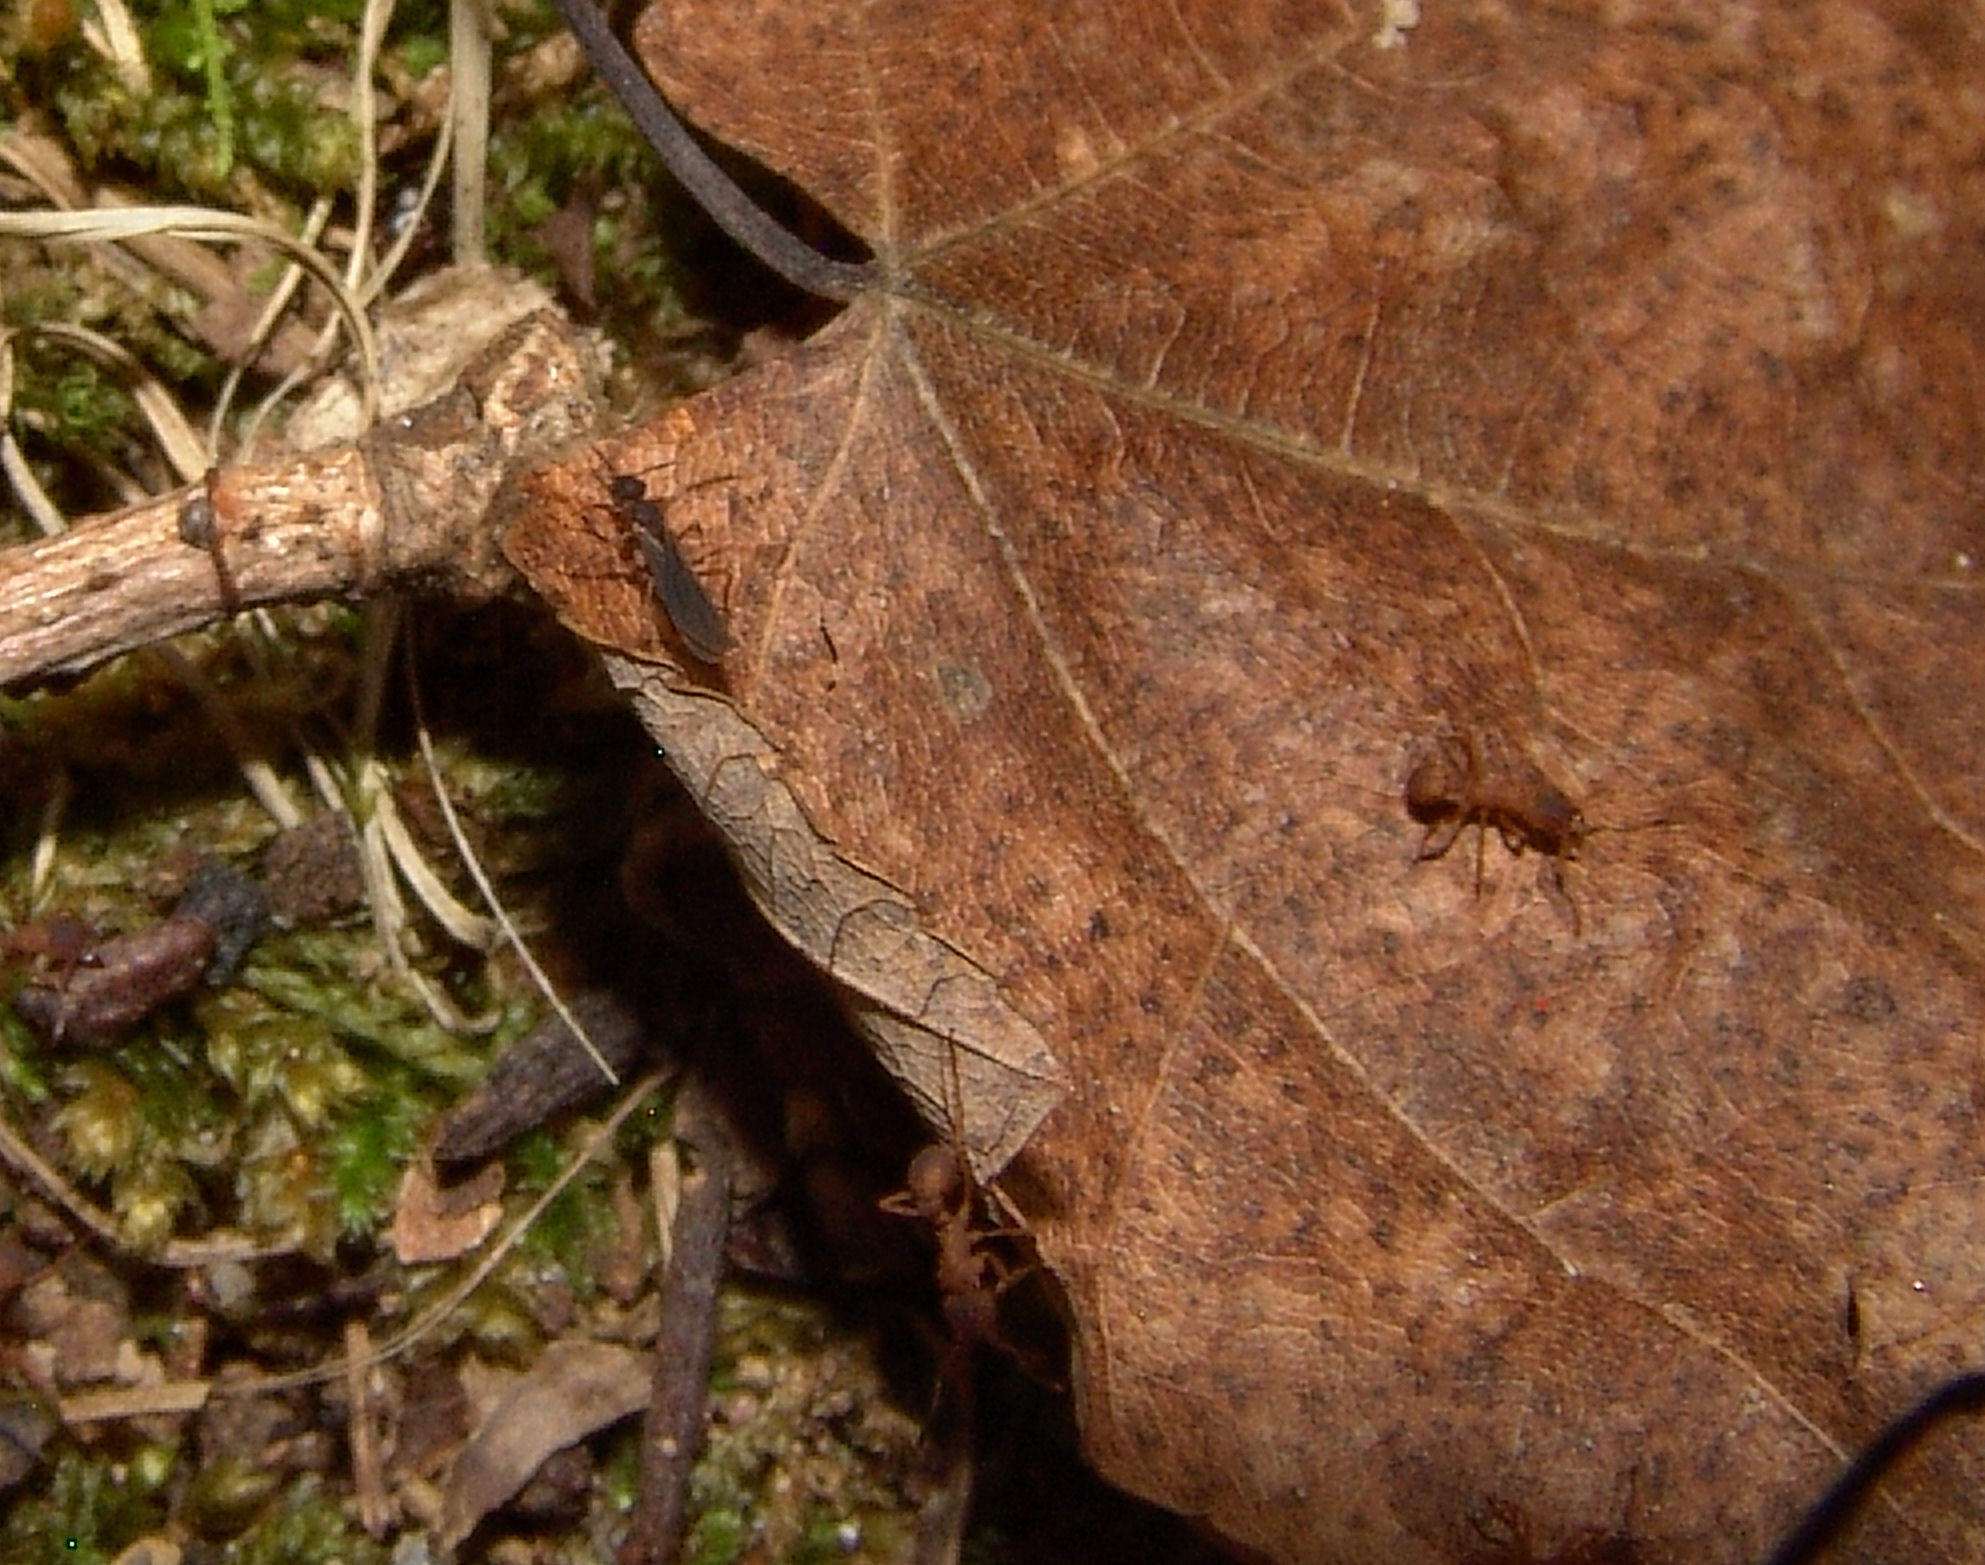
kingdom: Animalia
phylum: Arthropoda
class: Insecta
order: Hymenoptera
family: Formicidae
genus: Trachymyrmex
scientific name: Trachymyrmex septentrionalis
